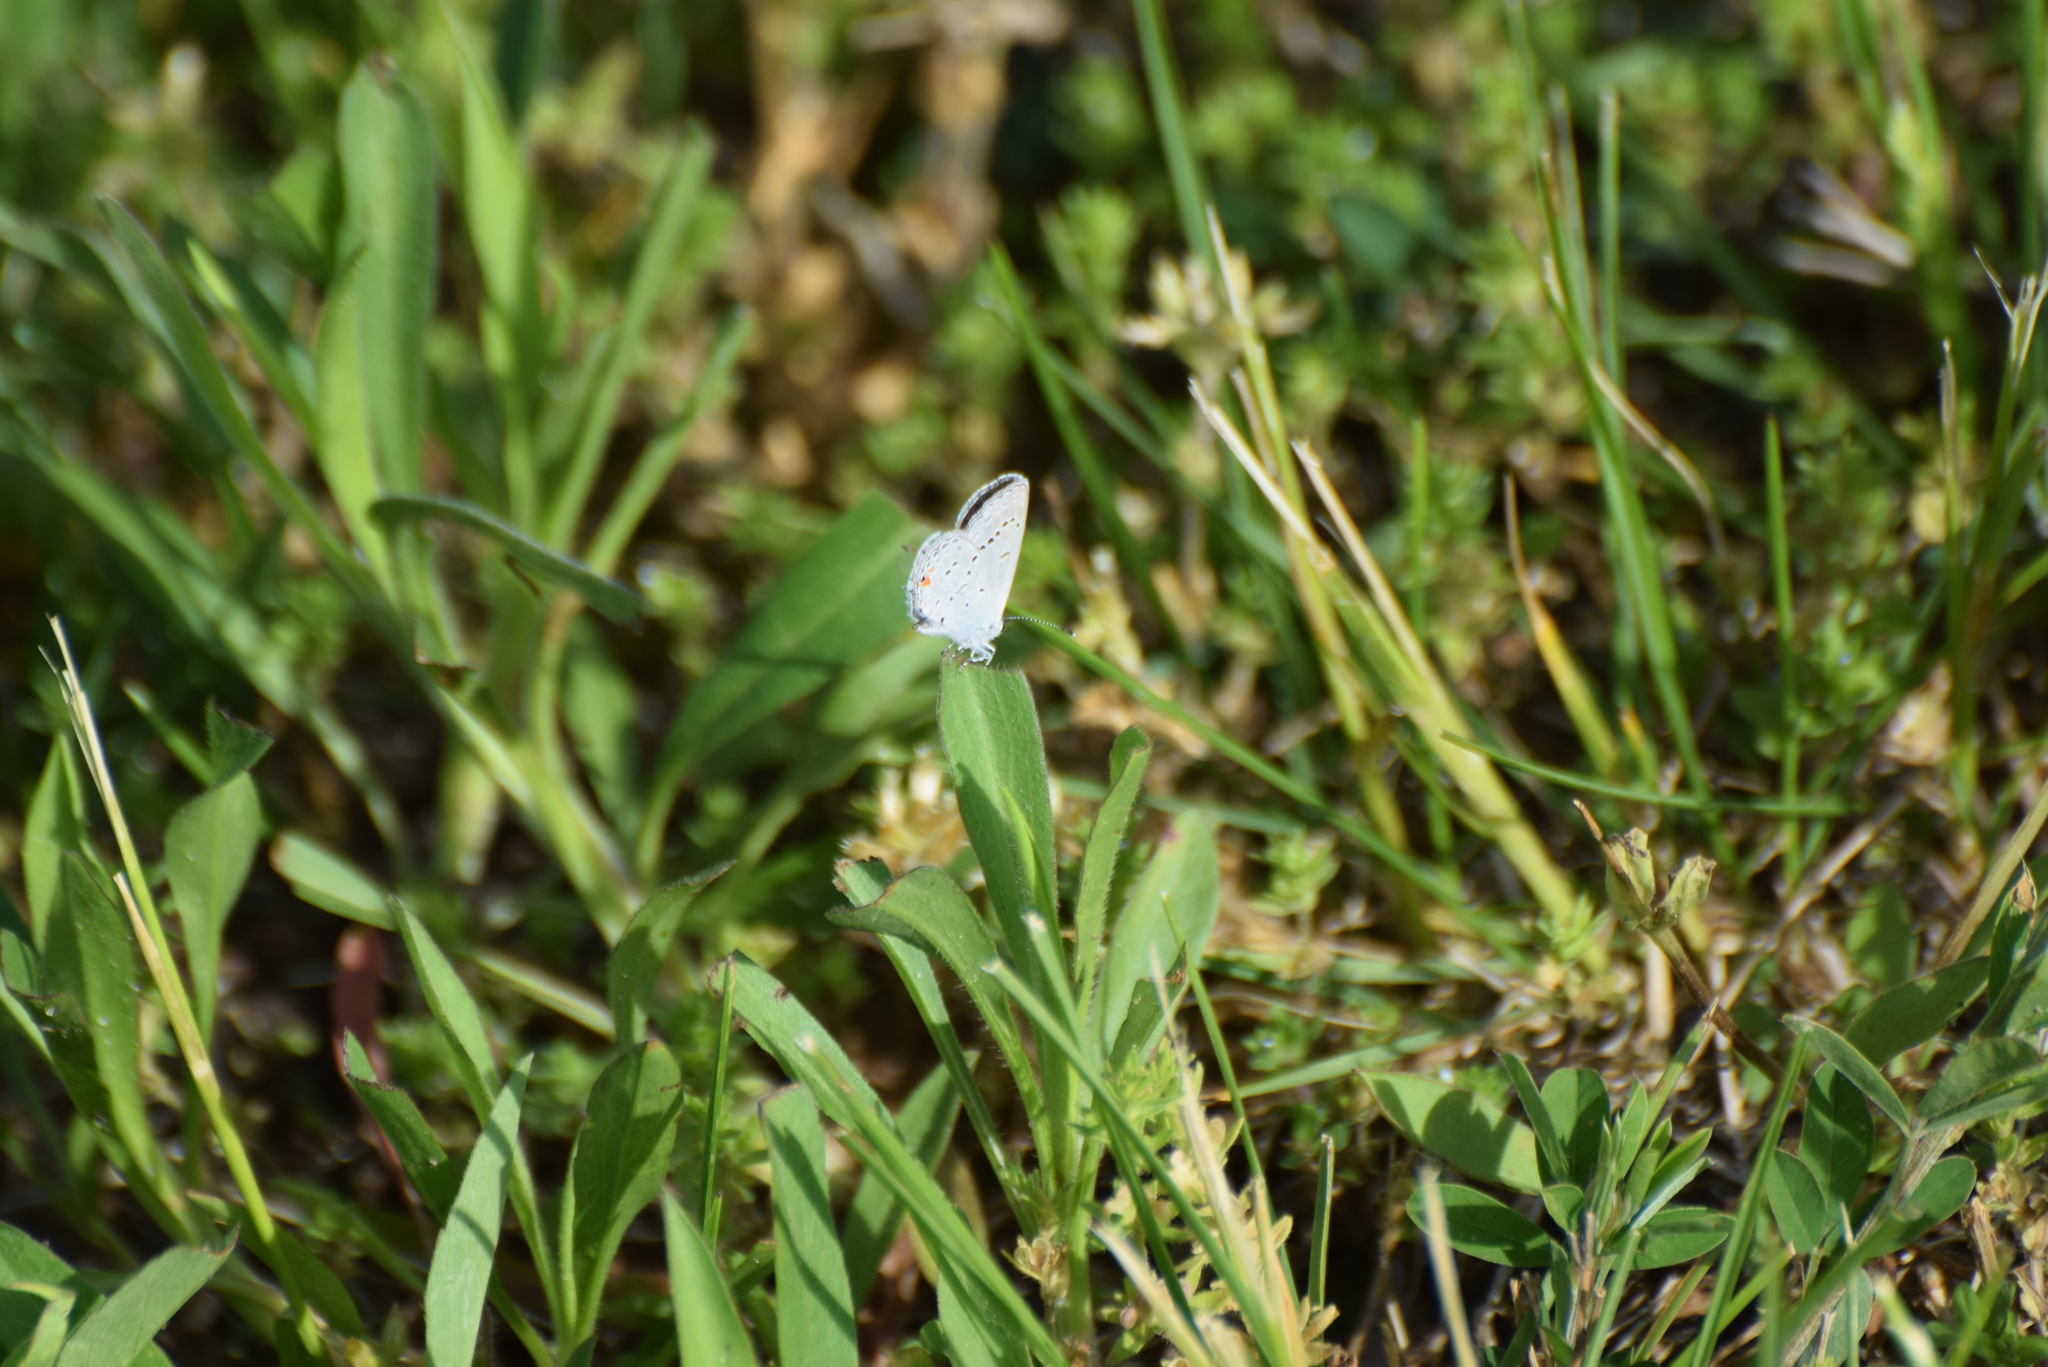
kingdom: Animalia
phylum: Arthropoda
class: Insecta
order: Lepidoptera
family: Lycaenidae
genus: Elkalyce
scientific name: Elkalyce comyntas
